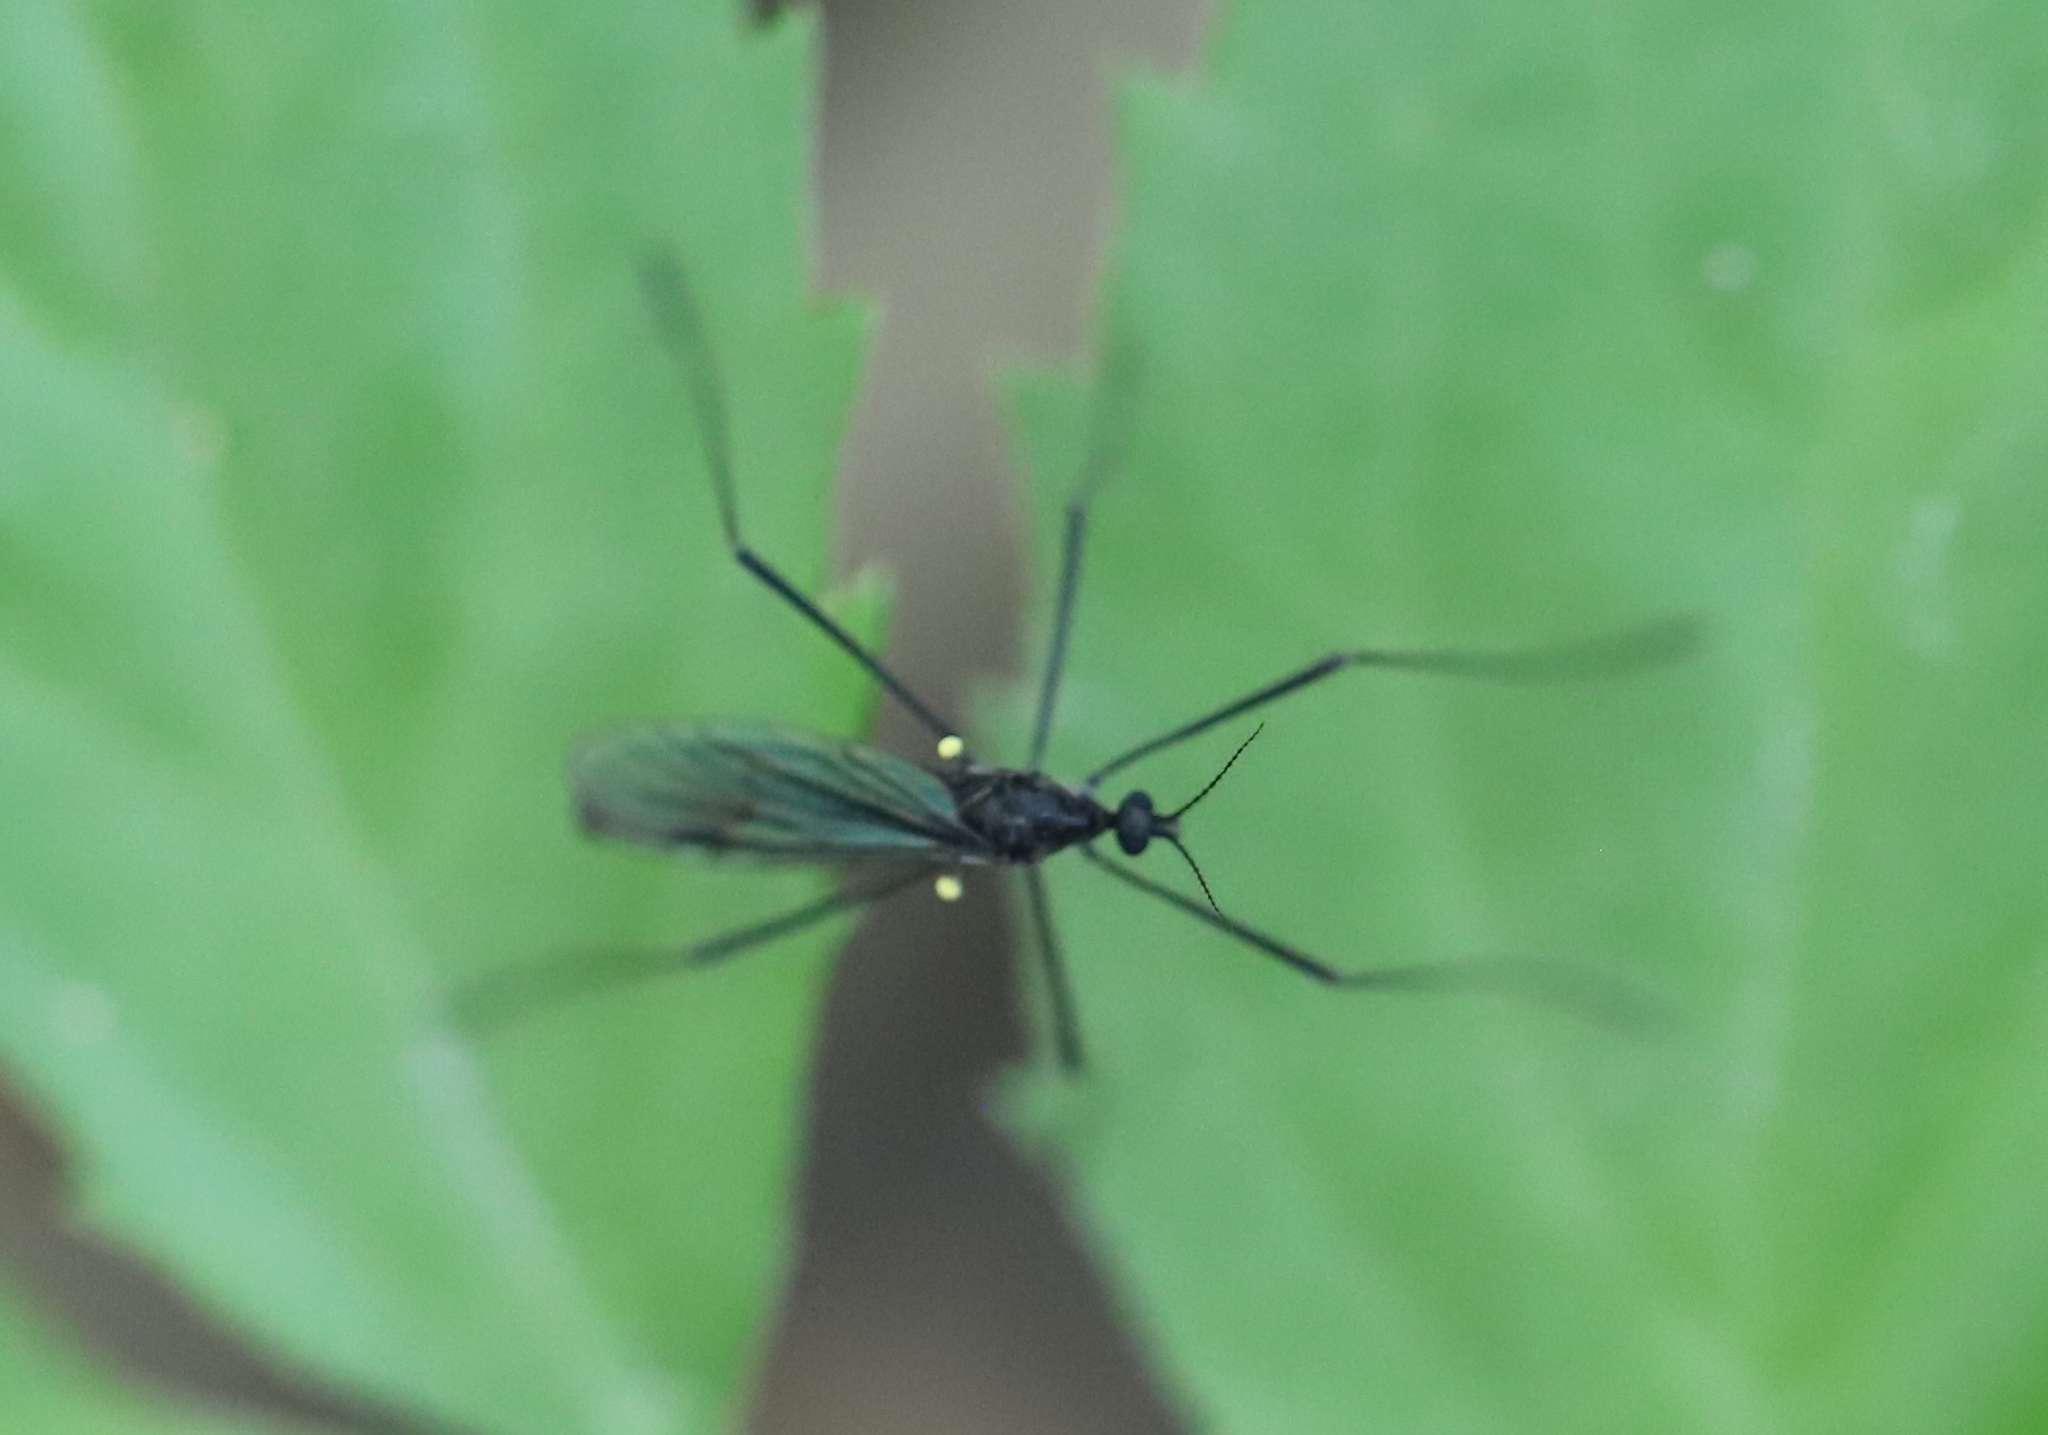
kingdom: Animalia
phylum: Arthropoda
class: Insecta
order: Diptera
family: Limoniidae
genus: Gnophomyia
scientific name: Gnophomyia tristissima
